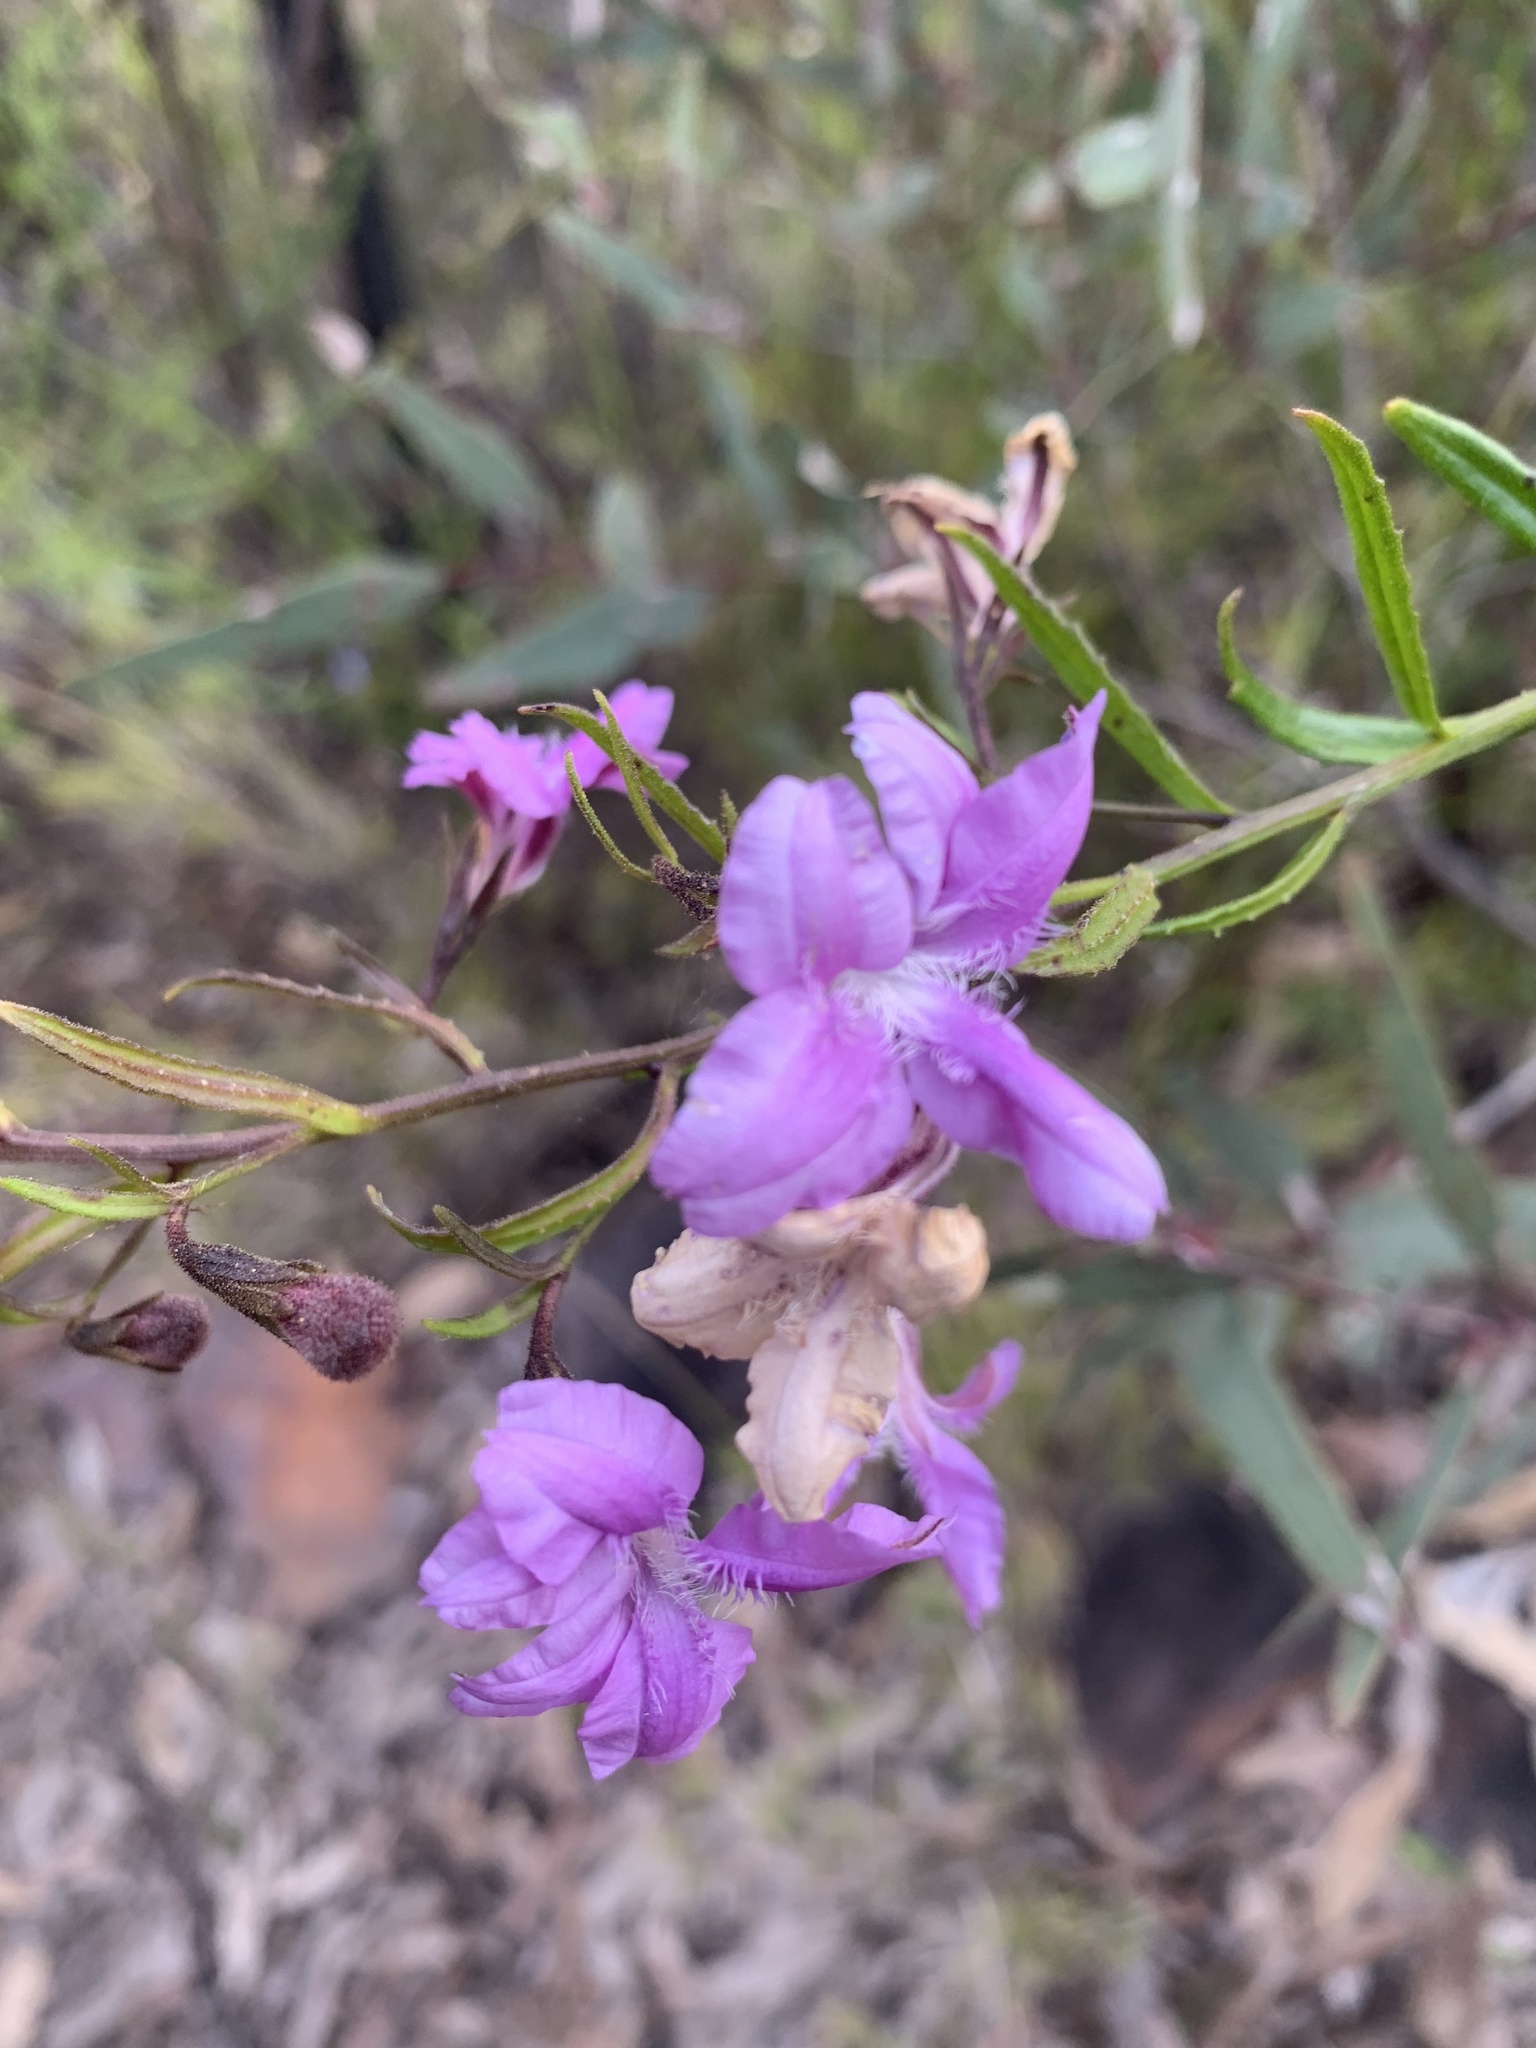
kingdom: Plantae
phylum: Tracheophyta
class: Magnoliopsida
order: Asterales
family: Goodeniaceae
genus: Goodenia
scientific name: Goodenia barbata
